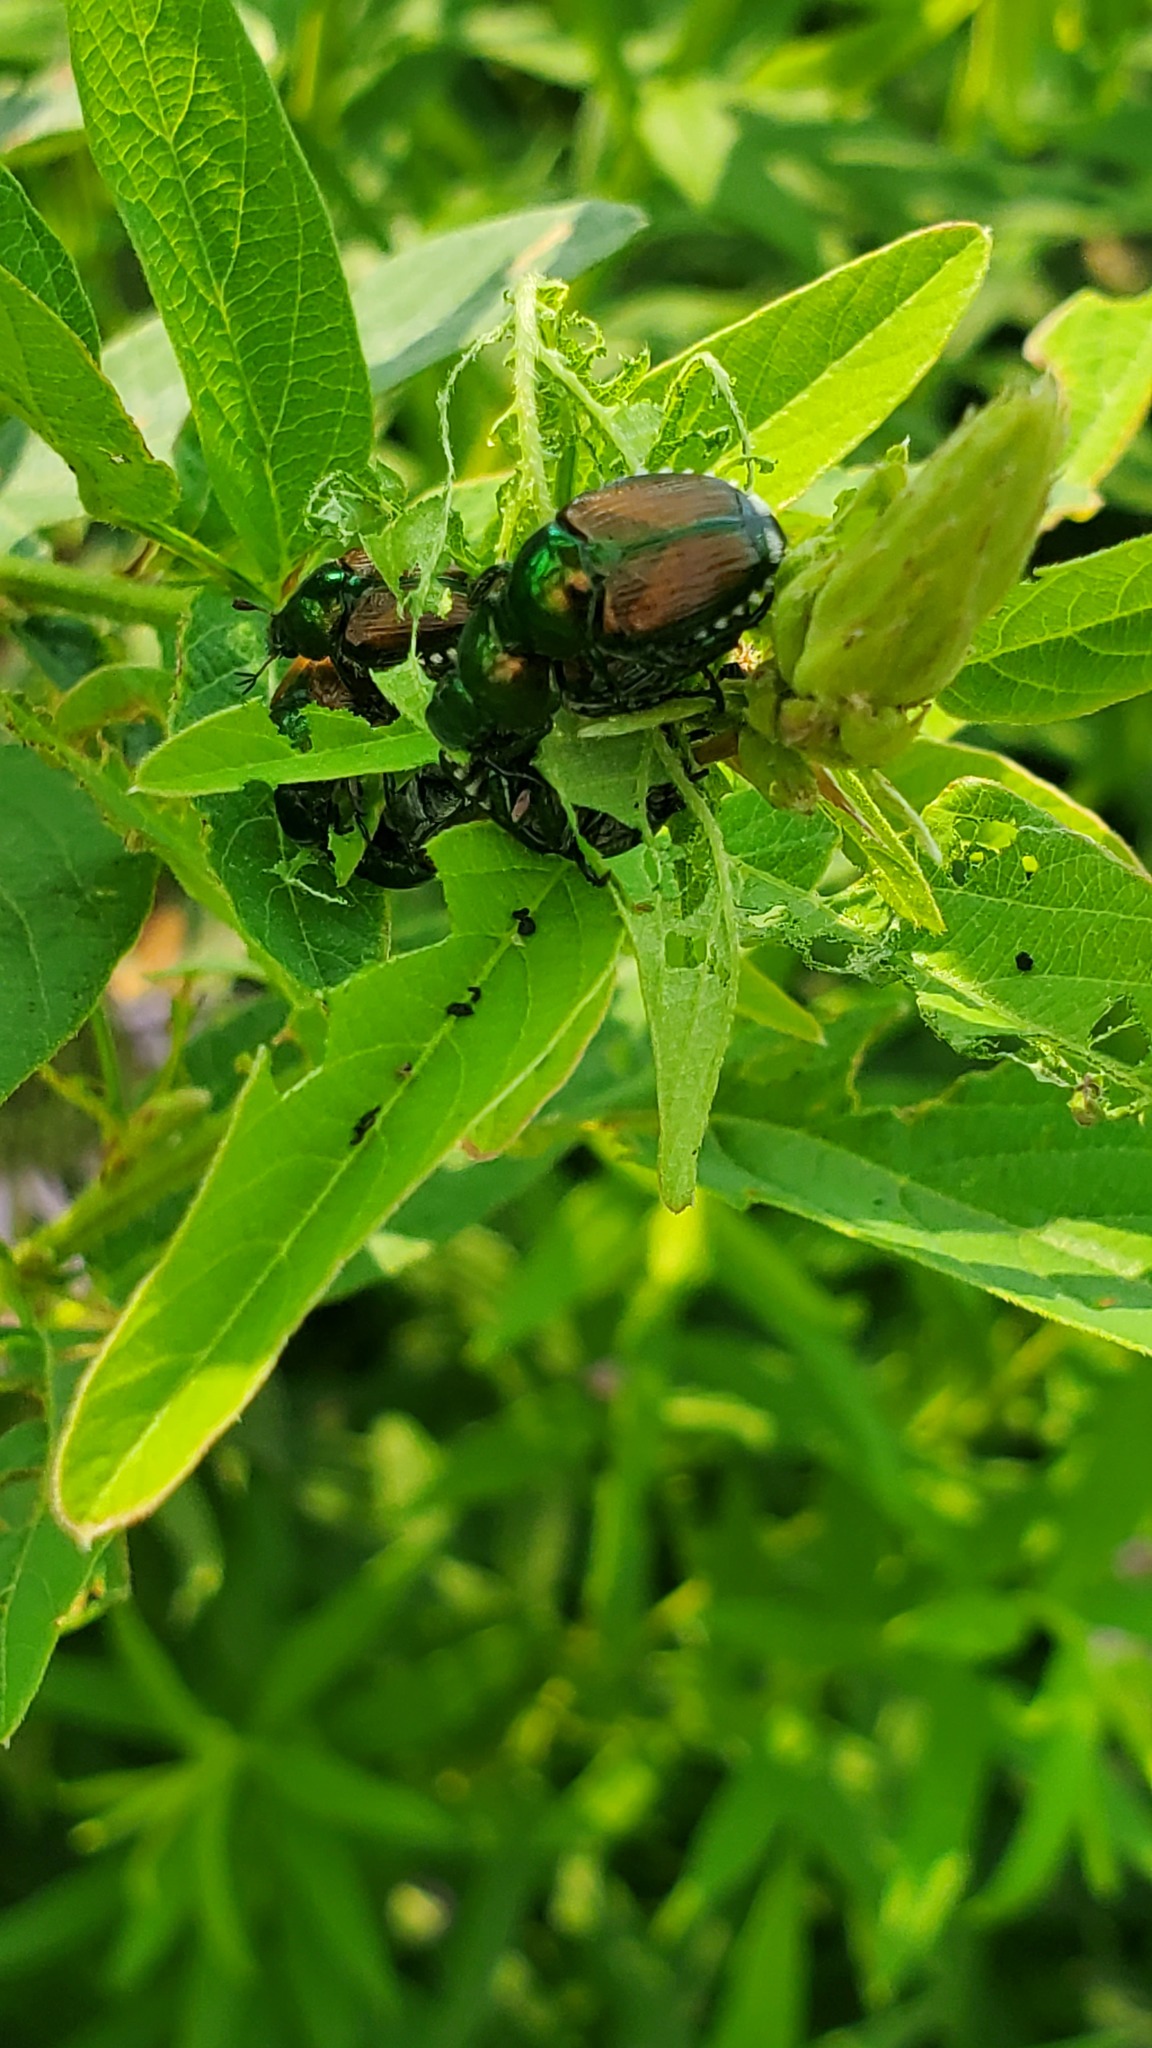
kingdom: Animalia
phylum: Arthropoda
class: Insecta
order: Coleoptera
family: Scarabaeidae
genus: Popillia
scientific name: Popillia japonica
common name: Japanese beetle
